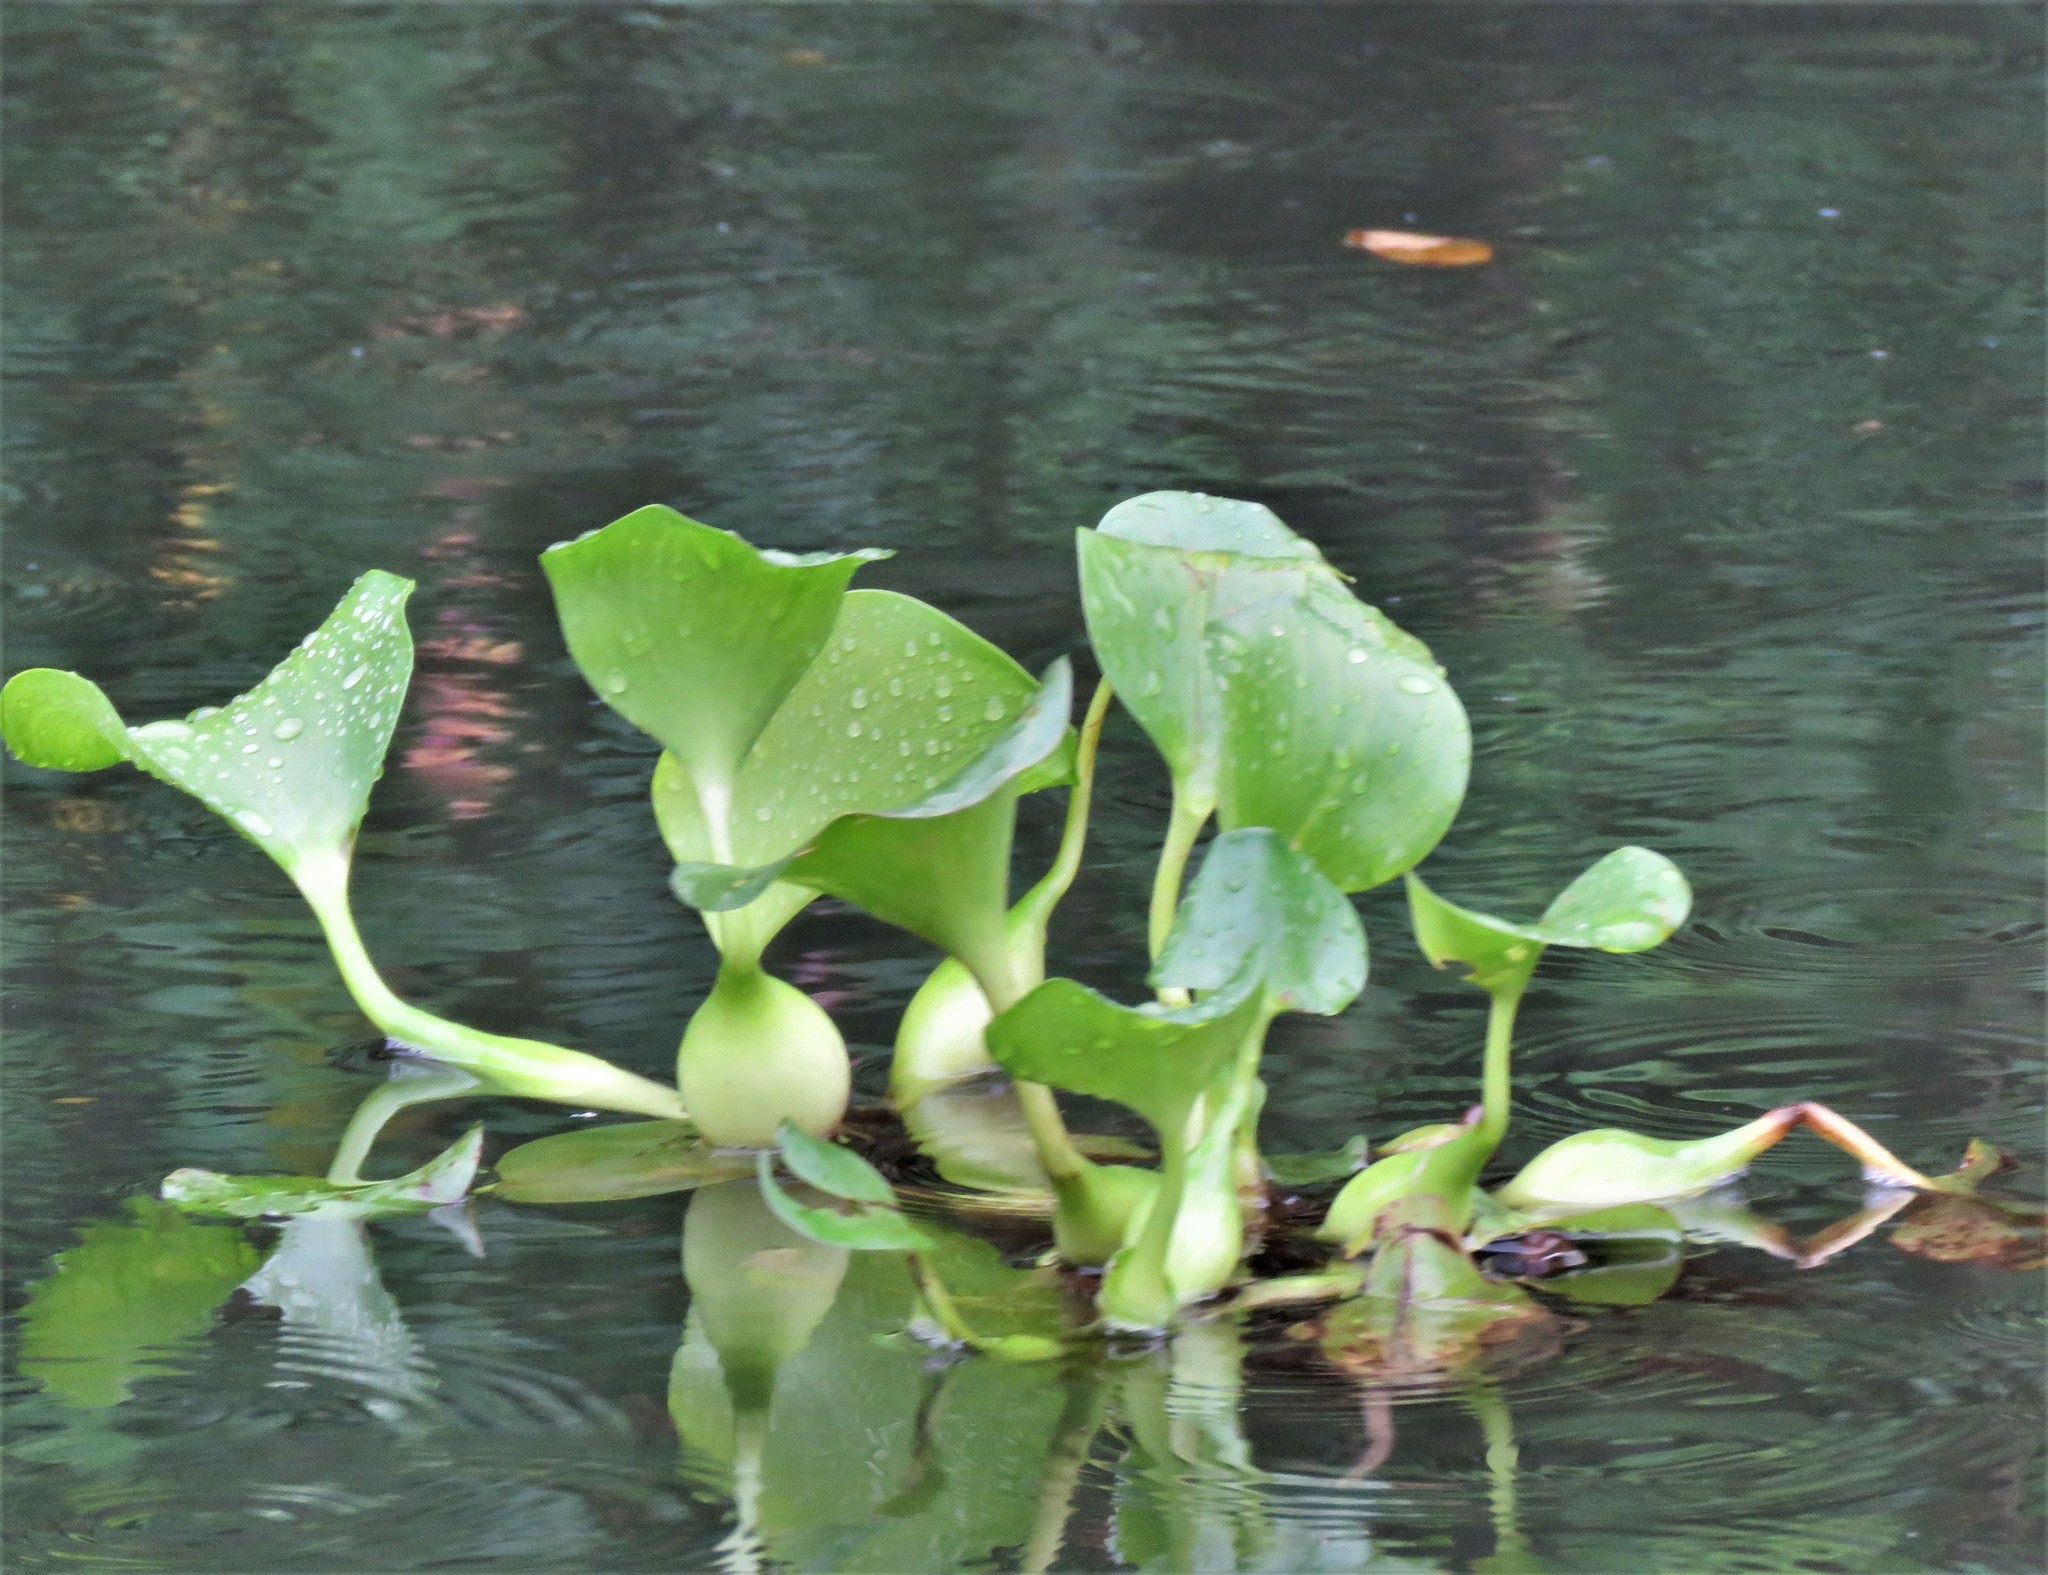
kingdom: Plantae
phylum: Tracheophyta
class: Liliopsida
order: Commelinales
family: Pontederiaceae
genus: Pontederia
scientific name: Pontederia crassipes
